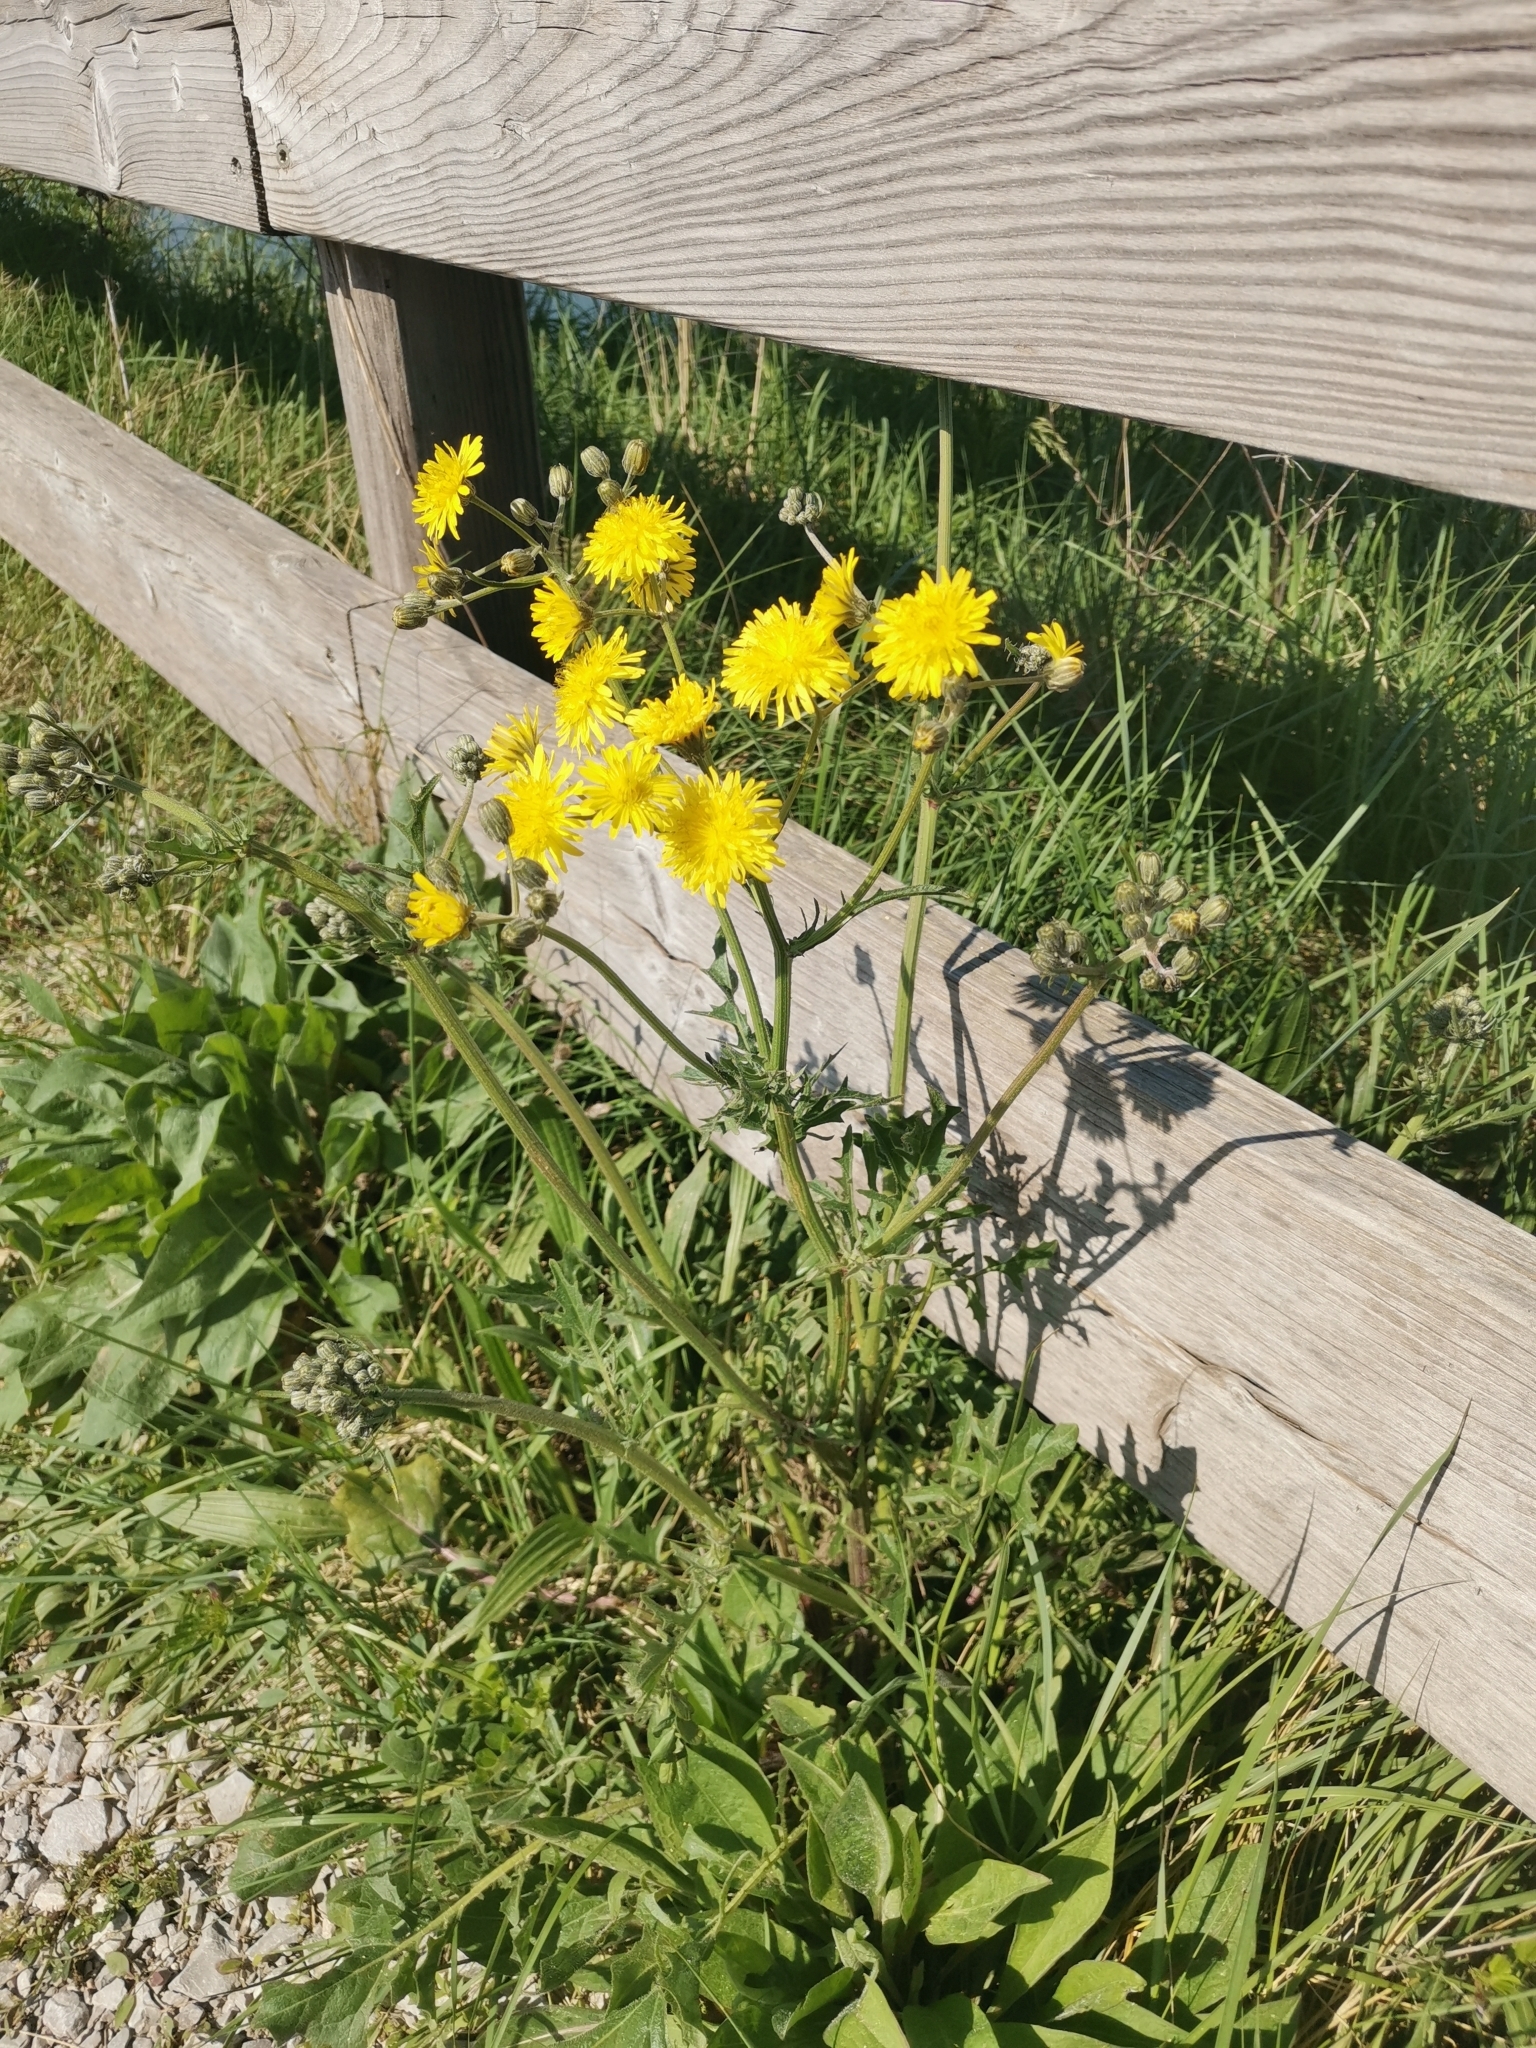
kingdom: Plantae
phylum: Tracheophyta
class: Magnoliopsida
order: Asterales
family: Asteraceae
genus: Crepis
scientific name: Crepis vesicaria
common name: Beaked hawksbeard
